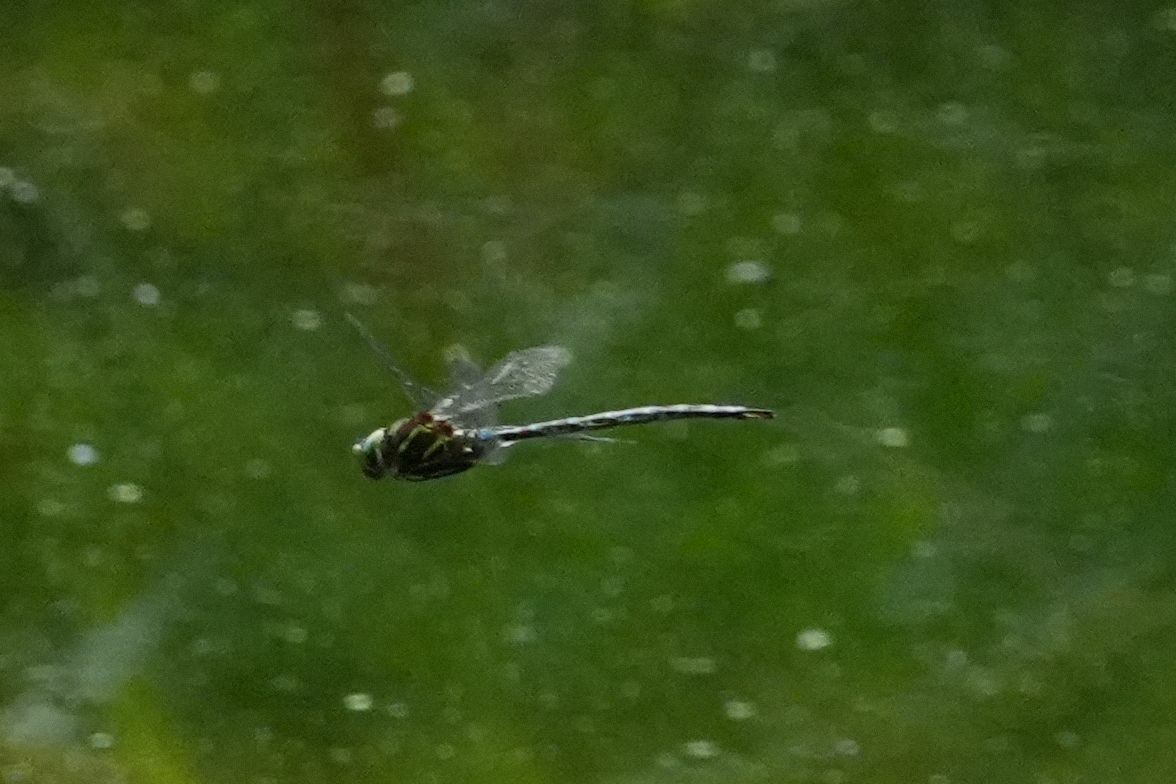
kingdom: Animalia
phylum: Arthropoda
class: Insecta
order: Odonata
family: Aeshnidae
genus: Aeshna
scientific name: Aeshna umbrosa
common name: Shadow darner
